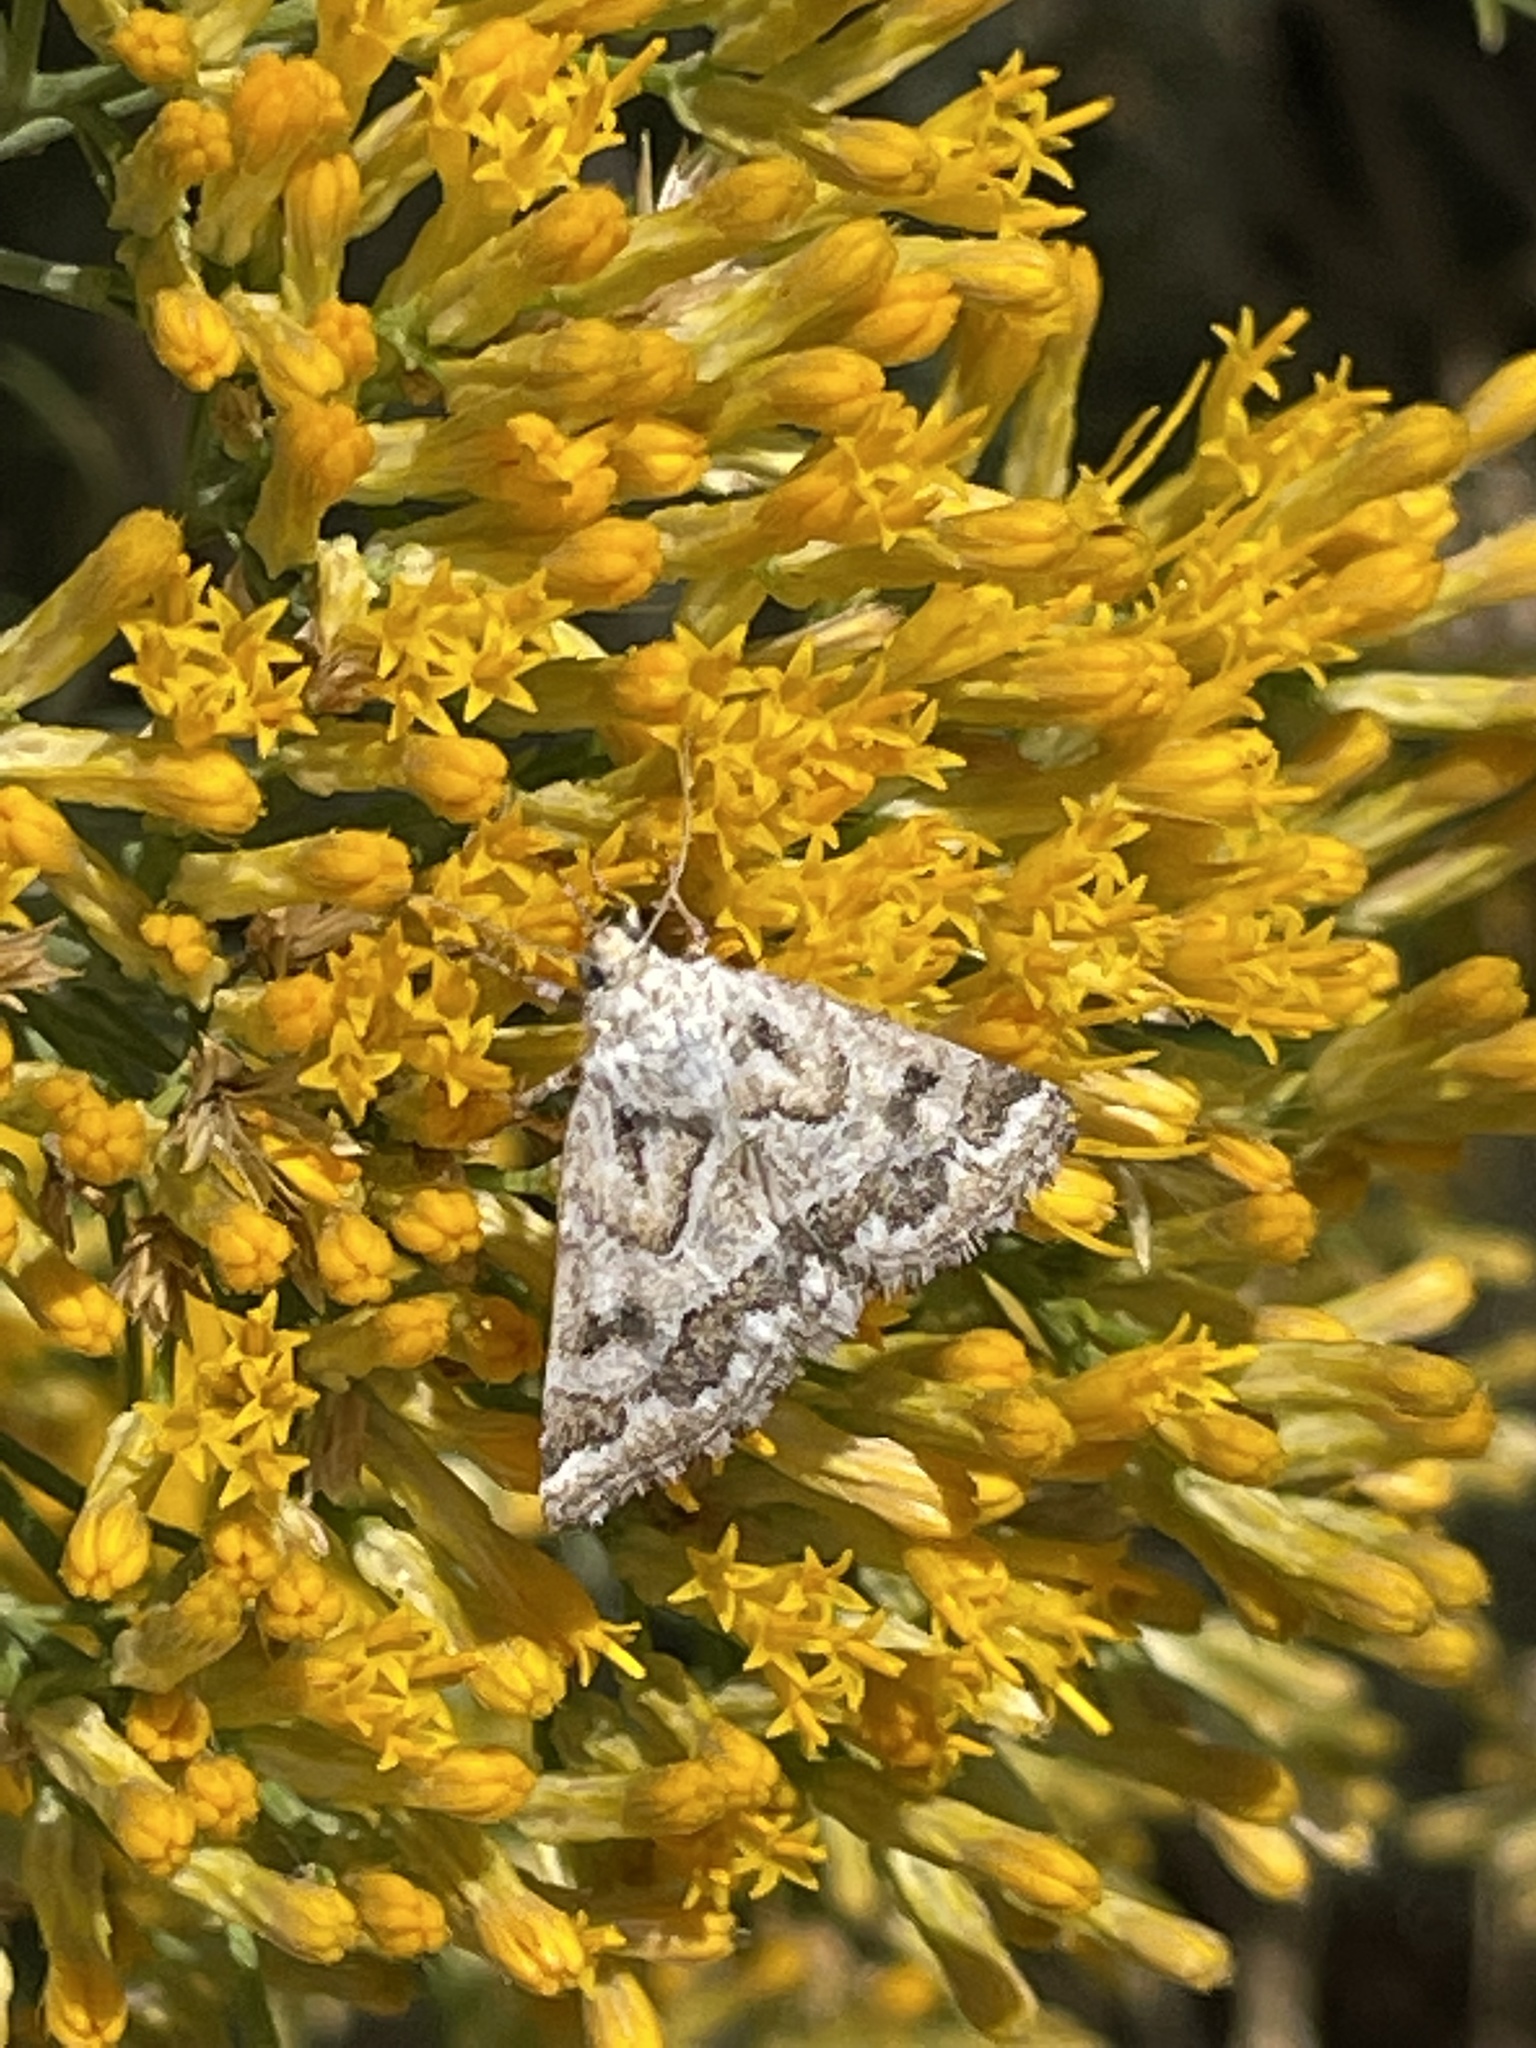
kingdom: Animalia
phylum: Arthropoda
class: Insecta
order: Lepidoptera
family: Noctuidae
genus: Schinia
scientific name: Schinia acutilinea
